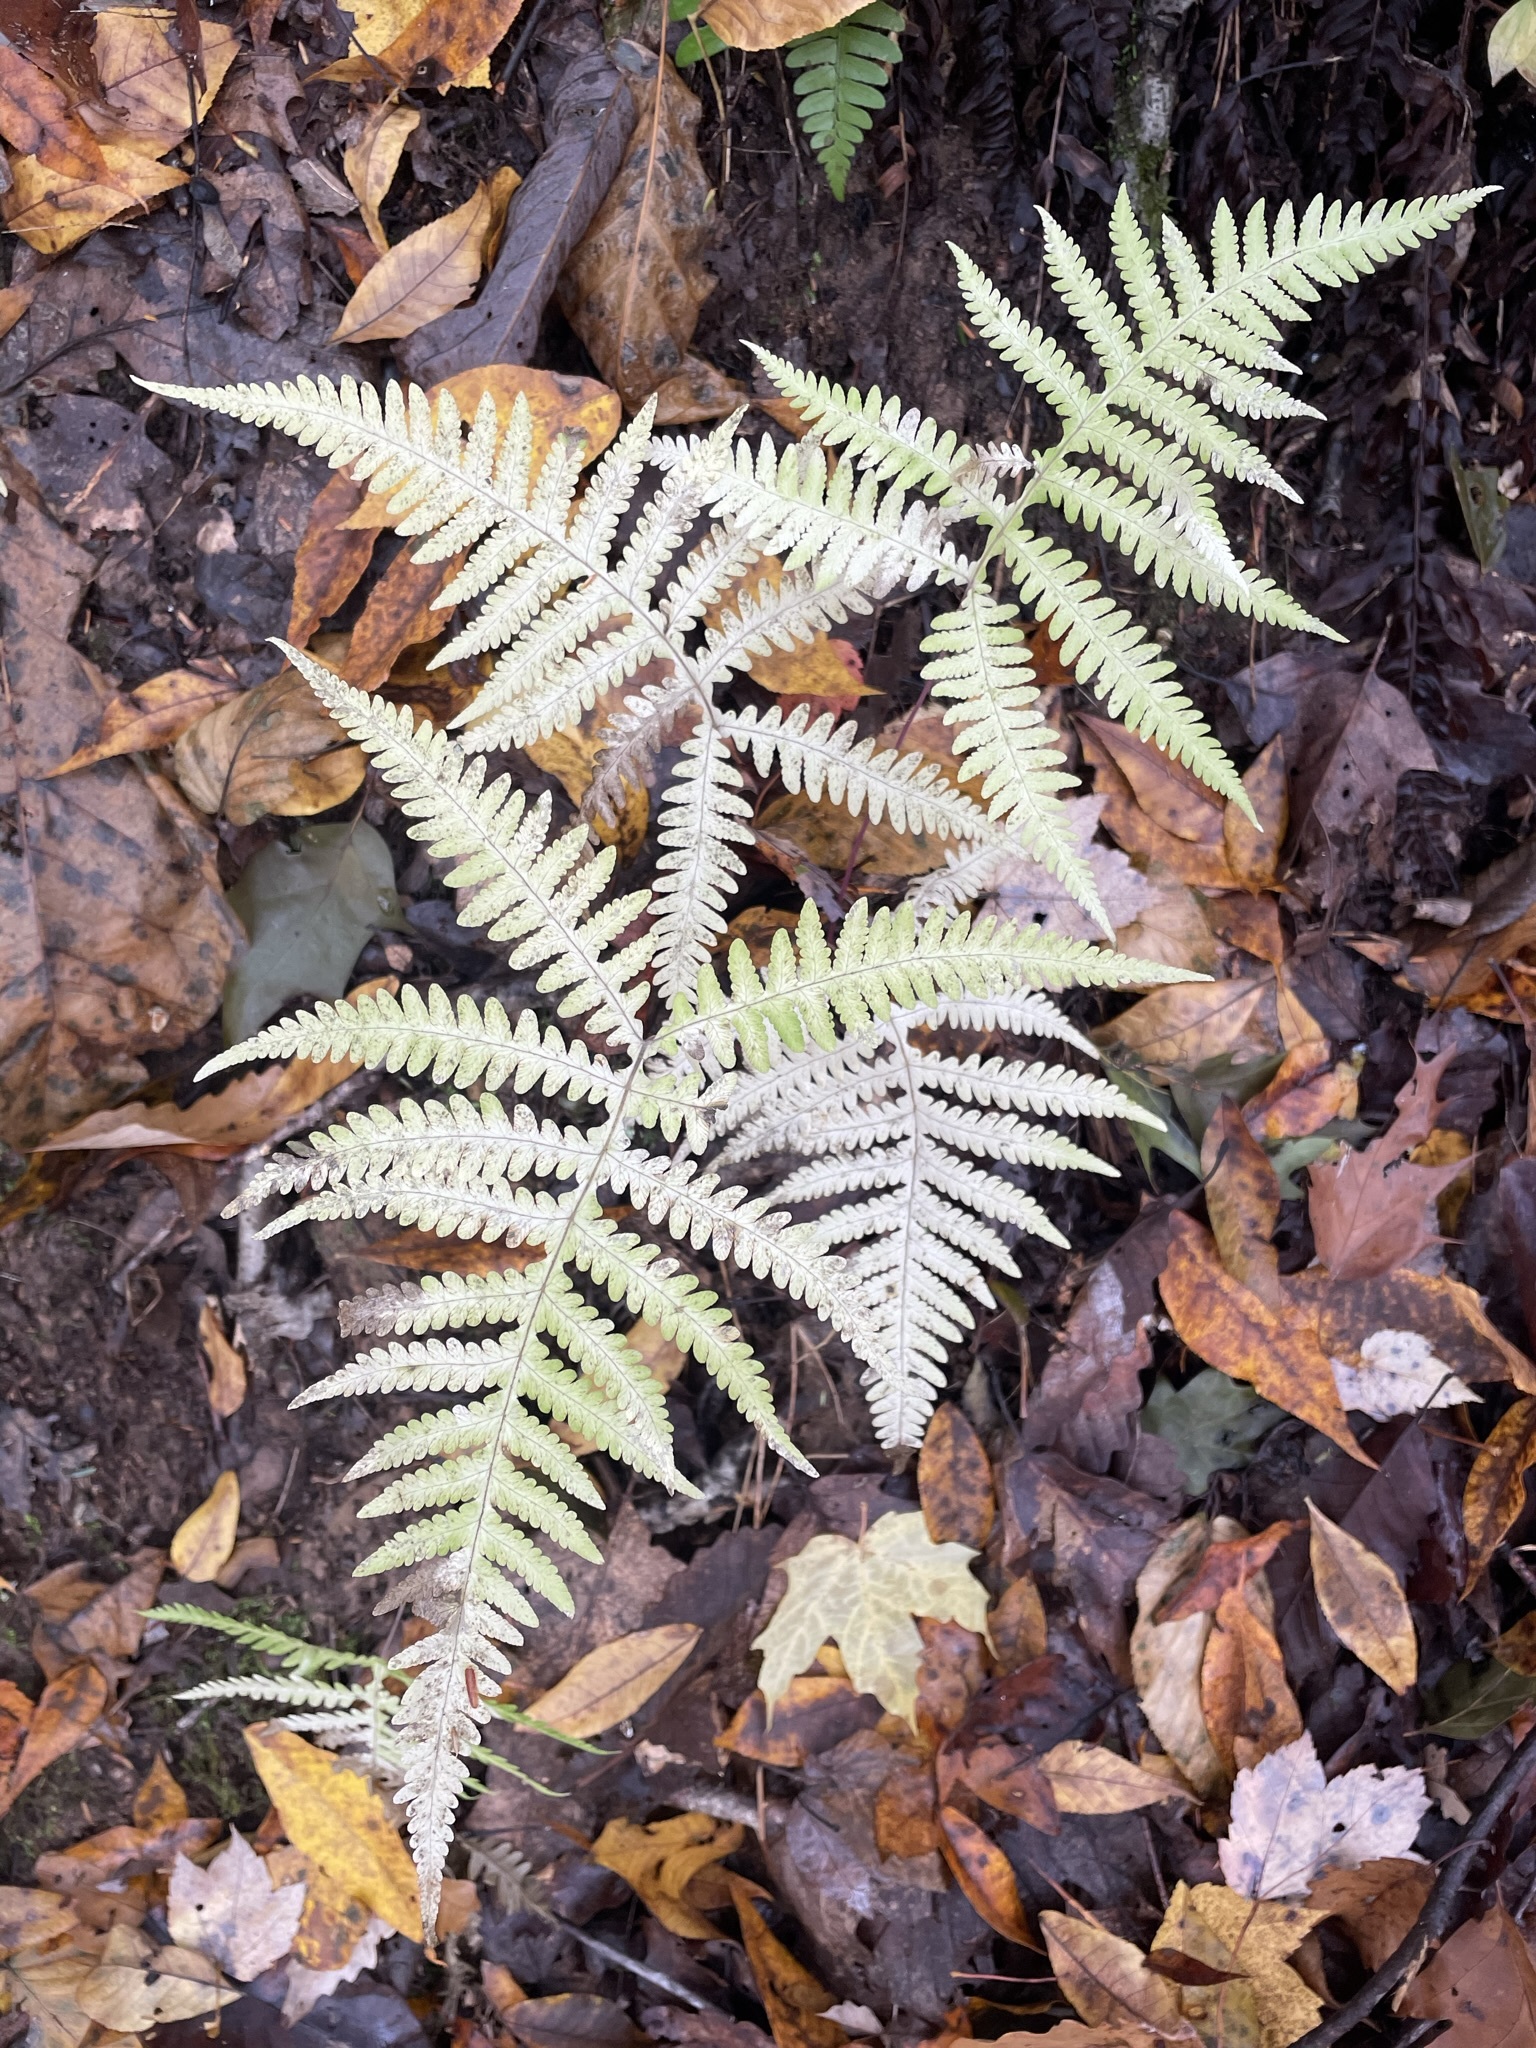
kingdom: Plantae
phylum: Tracheophyta
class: Polypodiopsida
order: Polypodiales
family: Thelypteridaceae
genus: Phegopteris
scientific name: Phegopteris hexagonoptera
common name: Broad beech fern
